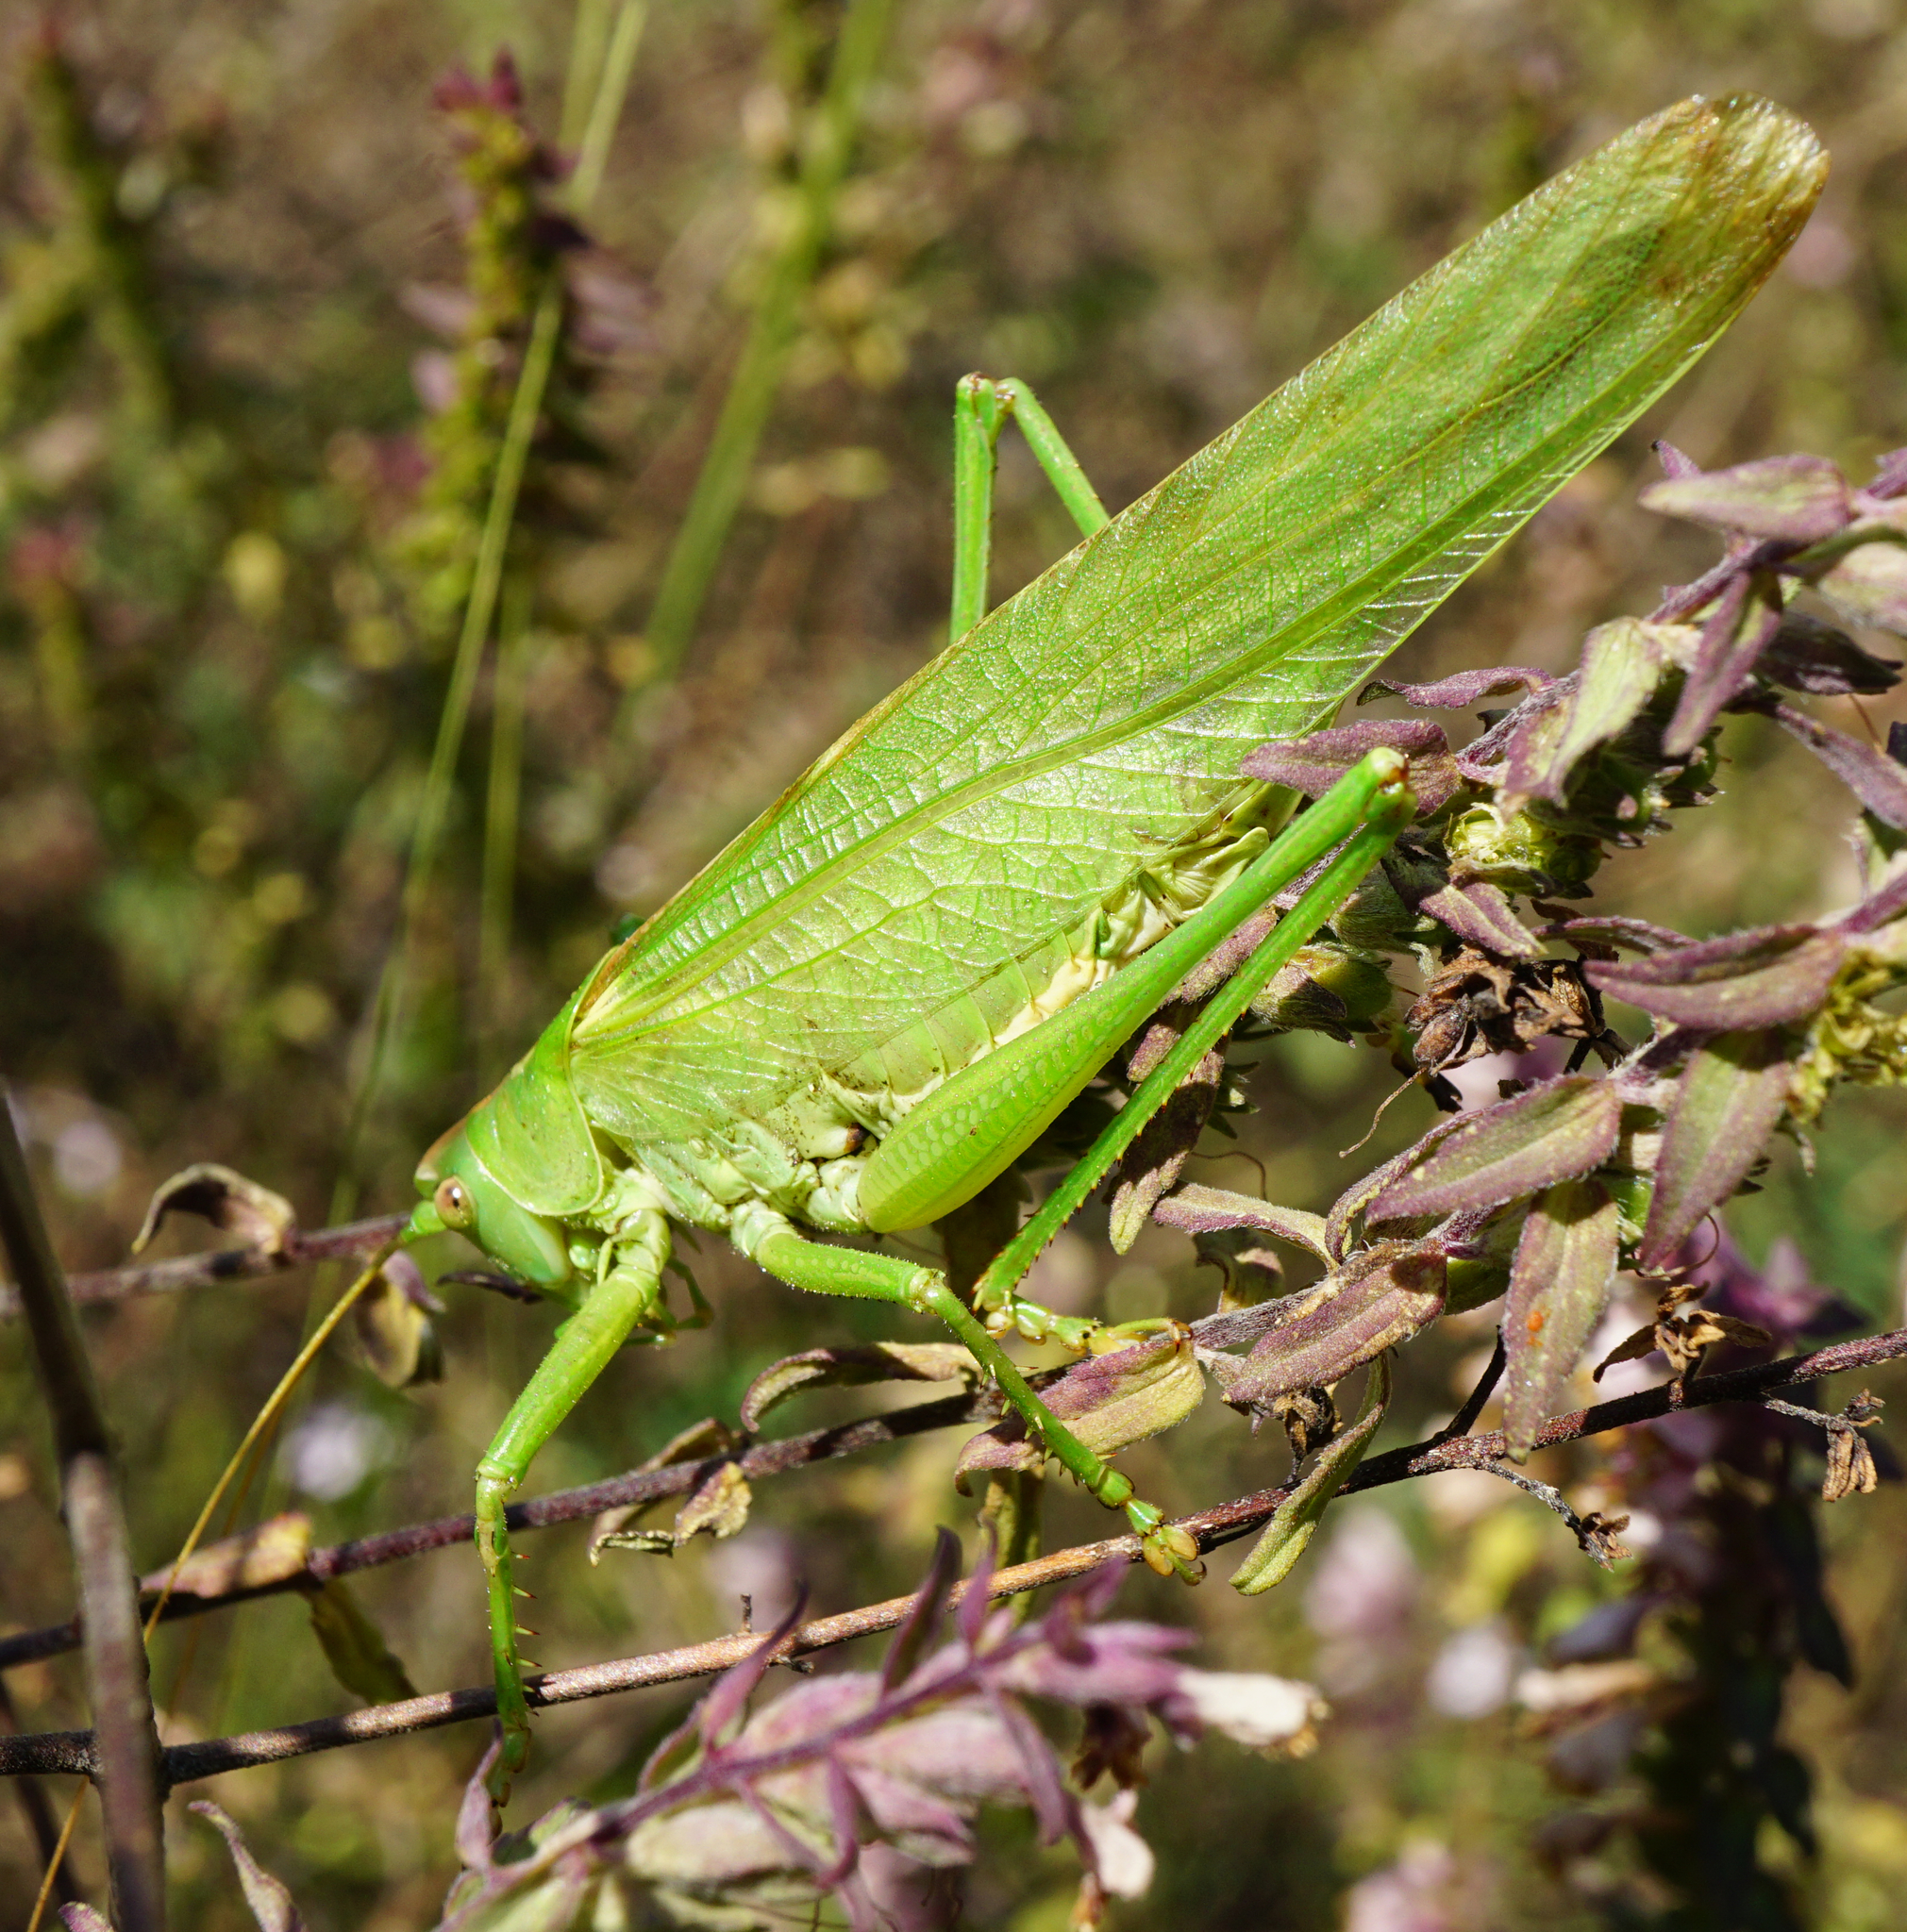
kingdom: Animalia
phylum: Arthropoda
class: Insecta
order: Orthoptera
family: Tettigoniidae
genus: Tettigonia
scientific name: Tettigonia viridissima
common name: Great green bush-cricket
